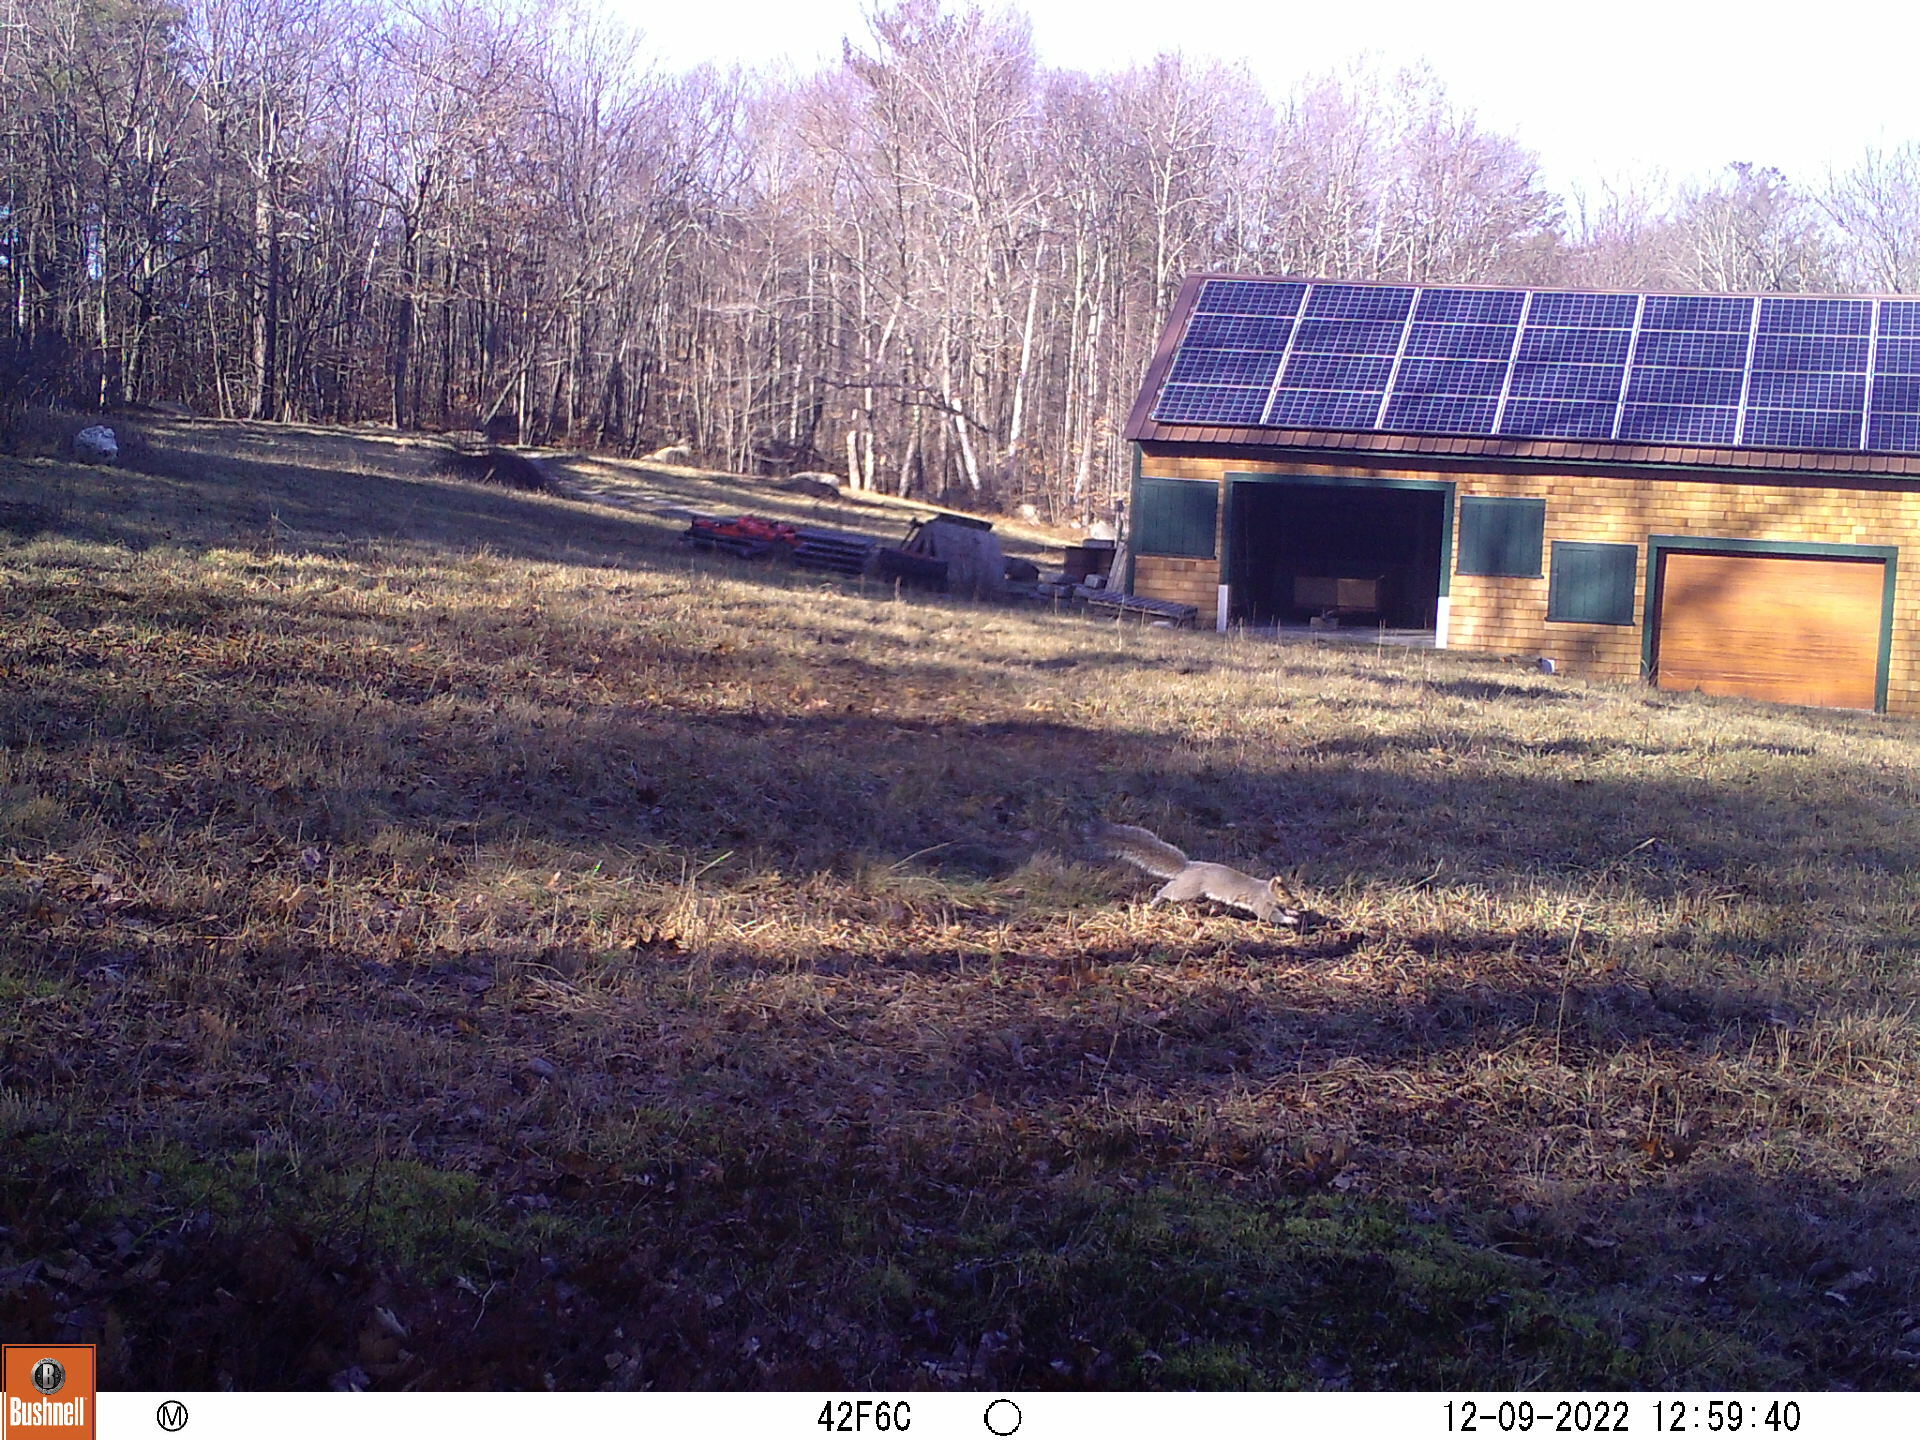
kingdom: Animalia
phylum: Chordata
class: Mammalia
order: Rodentia
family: Sciuridae
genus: Sciurus
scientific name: Sciurus carolinensis
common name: Eastern gray squirrel
